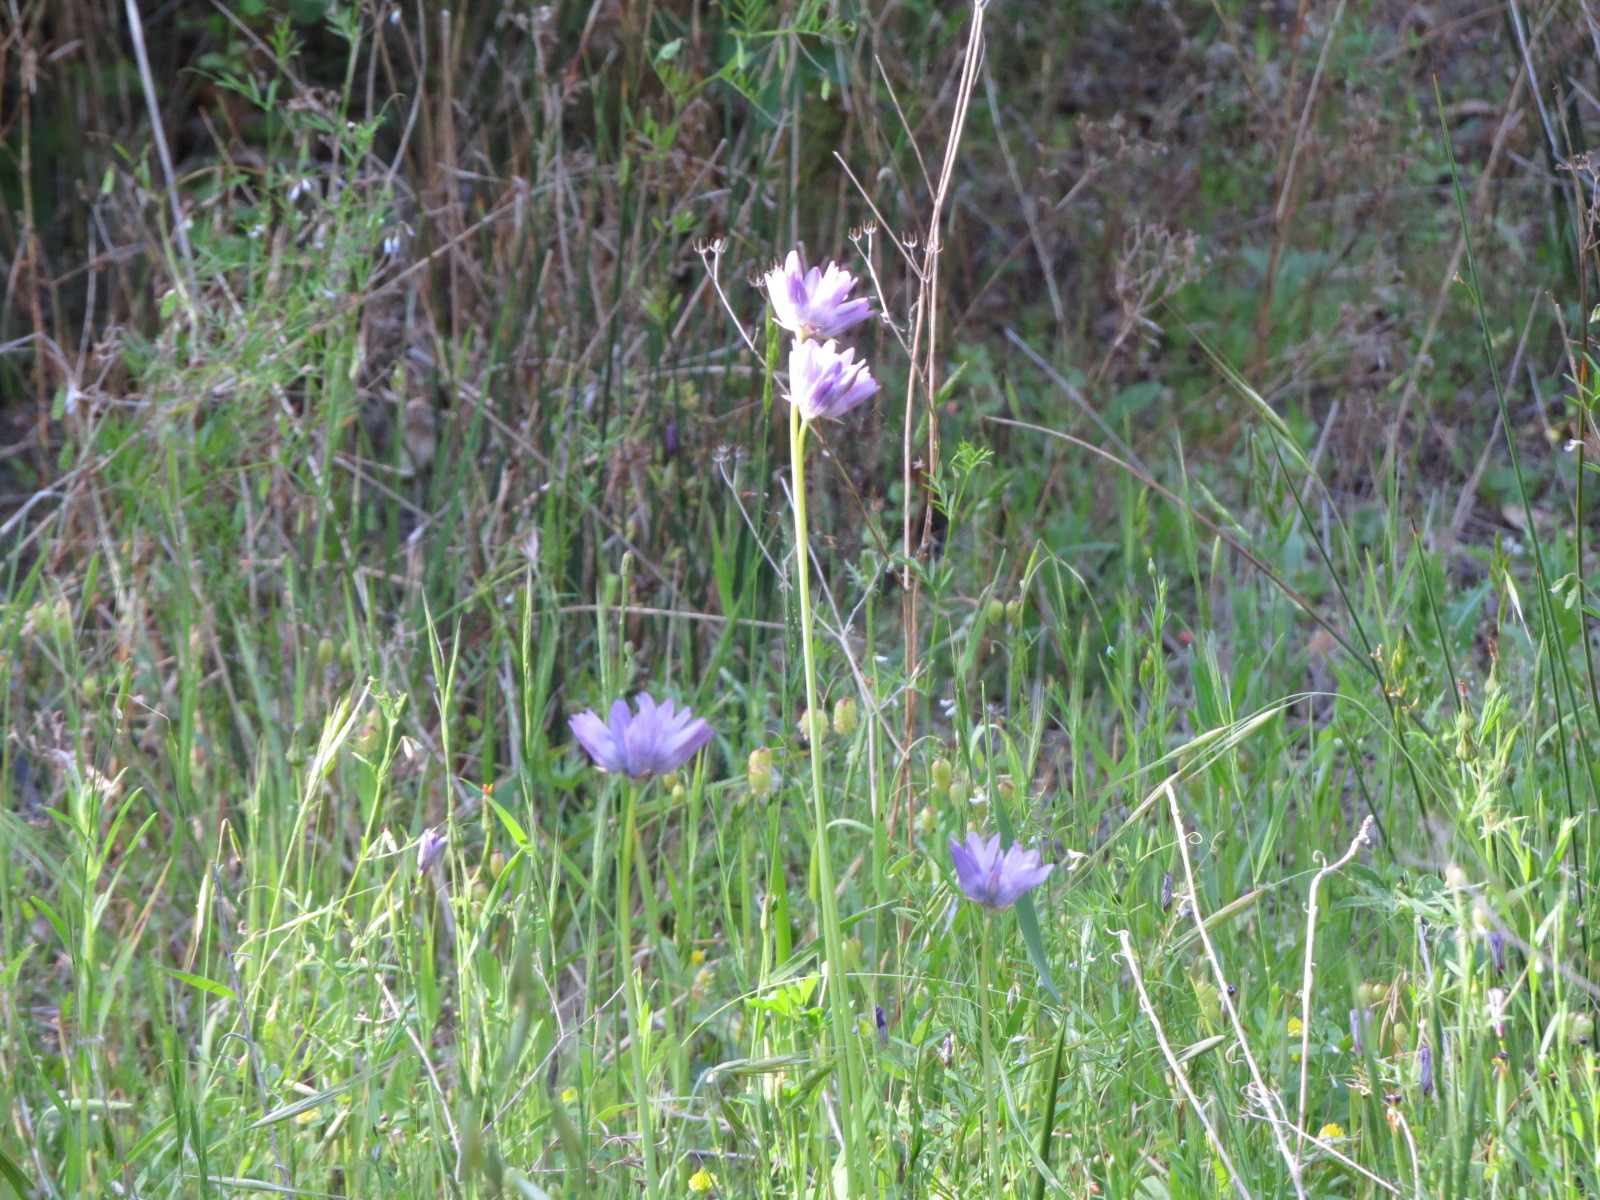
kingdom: Plantae
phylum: Tracheophyta
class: Liliopsida
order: Asparagales
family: Asparagaceae
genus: Dipterostemon
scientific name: Dipterostemon capitatus
